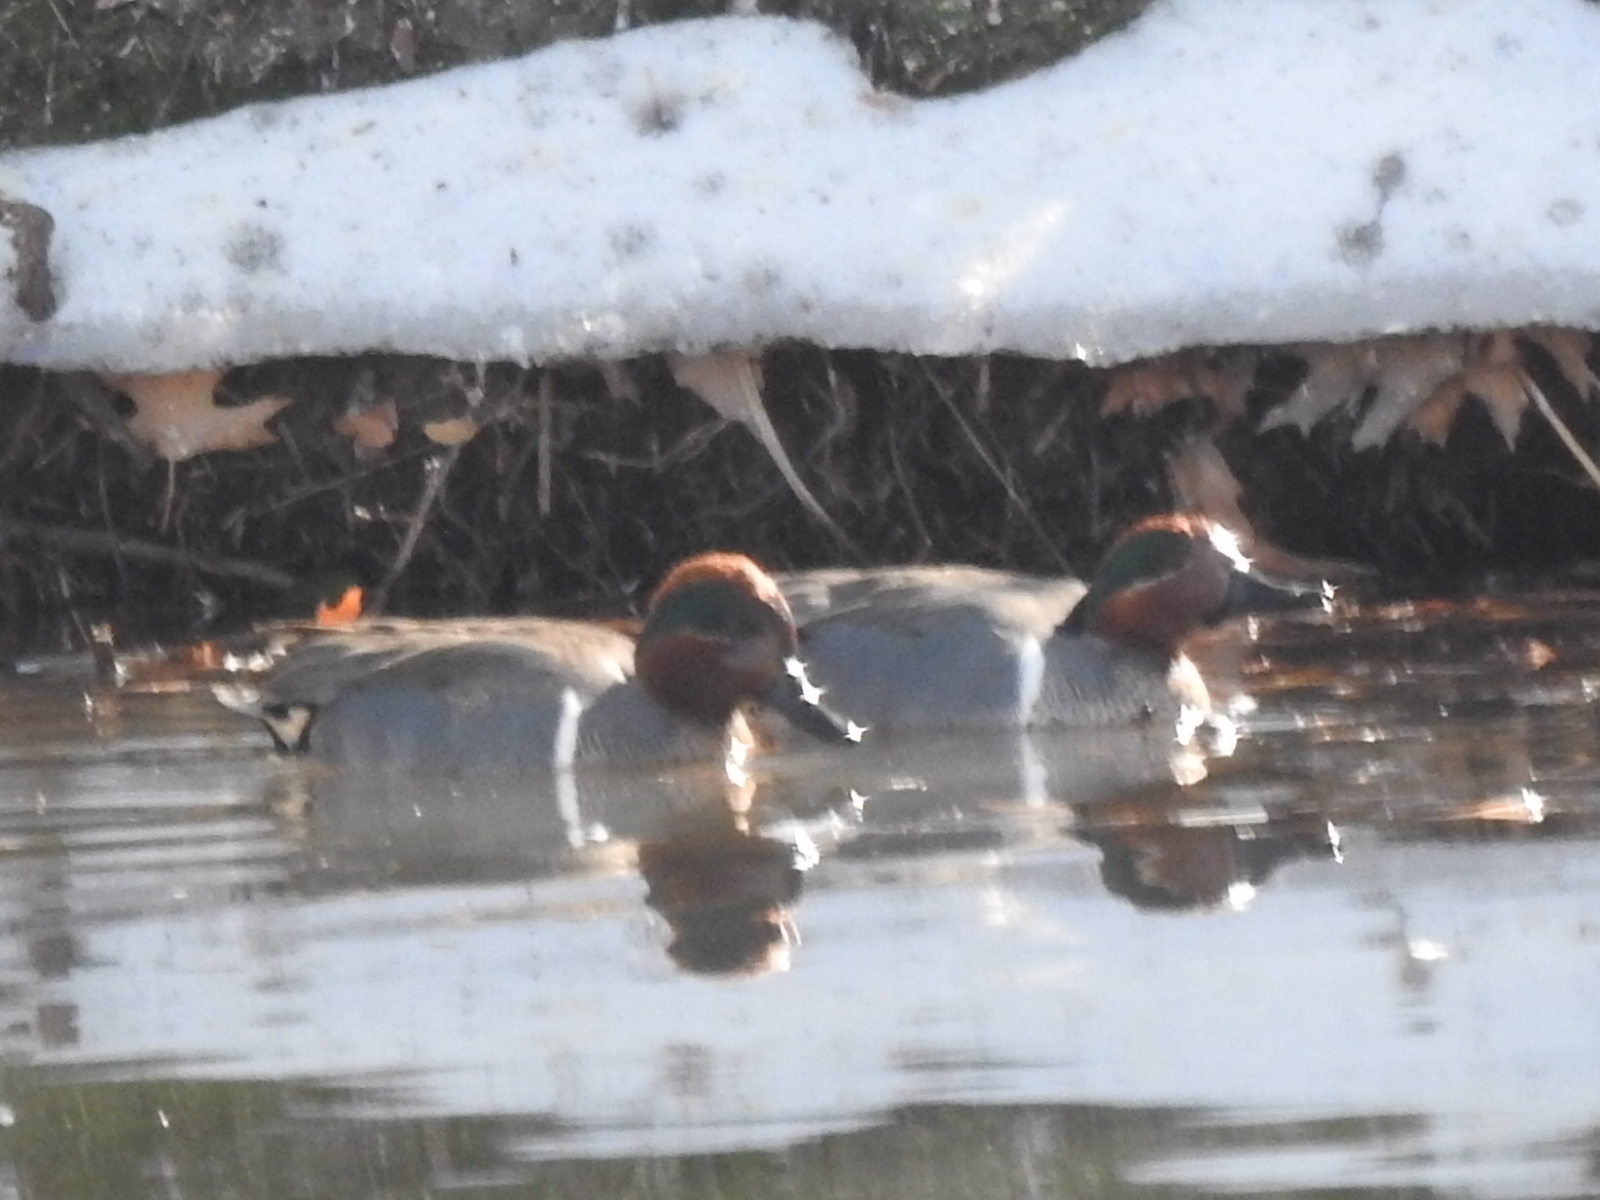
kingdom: Animalia
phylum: Chordata
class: Aves
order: Anseriformes
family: Anatidae
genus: Anas
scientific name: Anas crecca
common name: Eurasian teal
